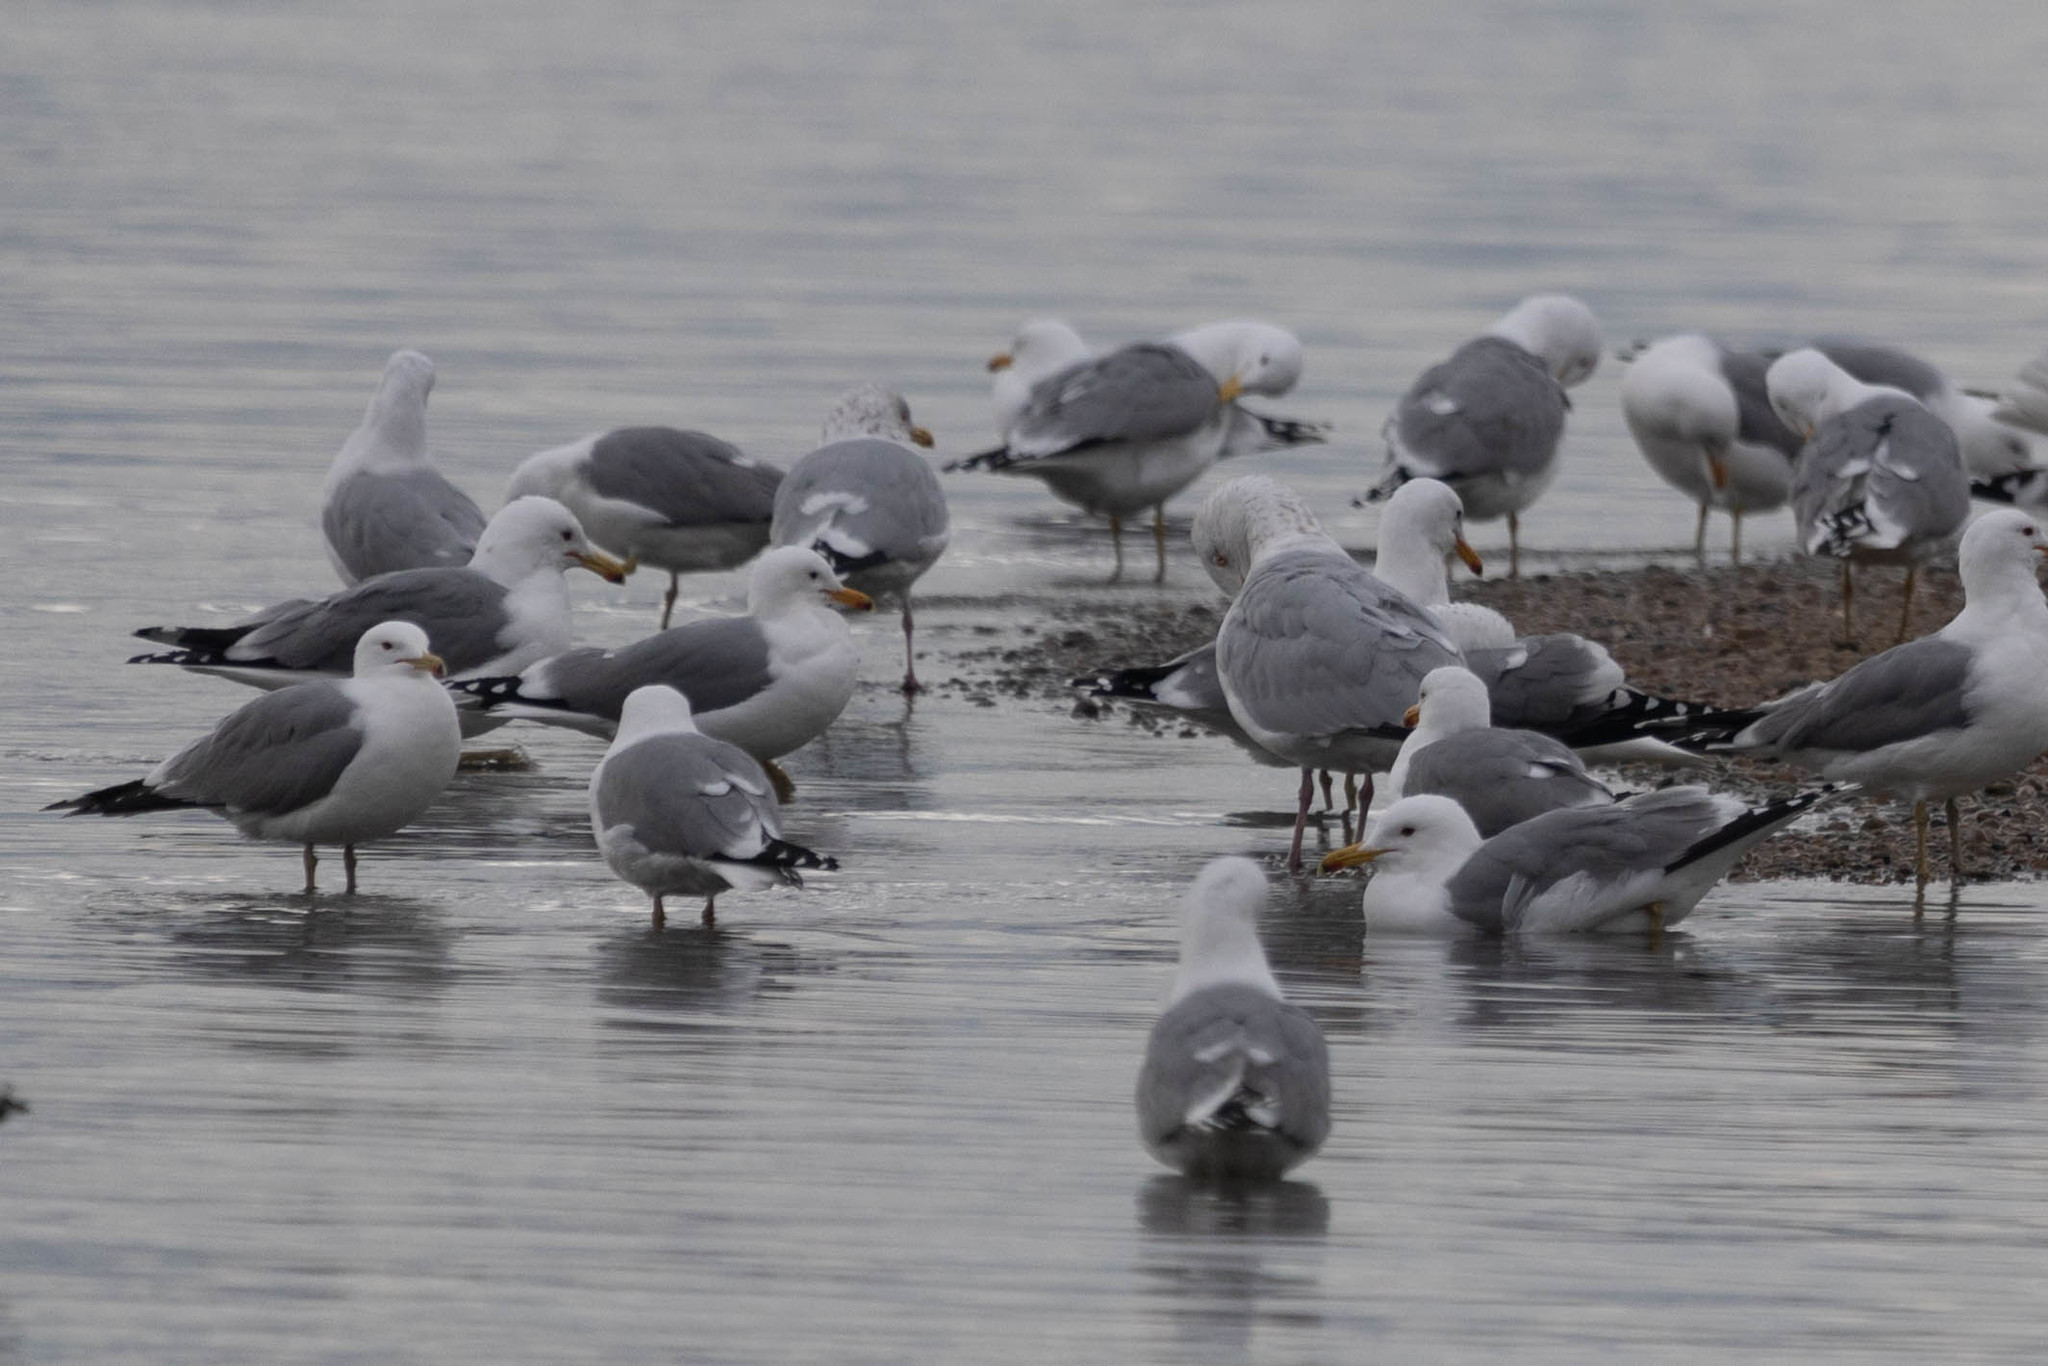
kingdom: Animalia
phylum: Chordata
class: Aves
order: Charadriiformes
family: Laridae
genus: Larus
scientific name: Larus californicus
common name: California gull
